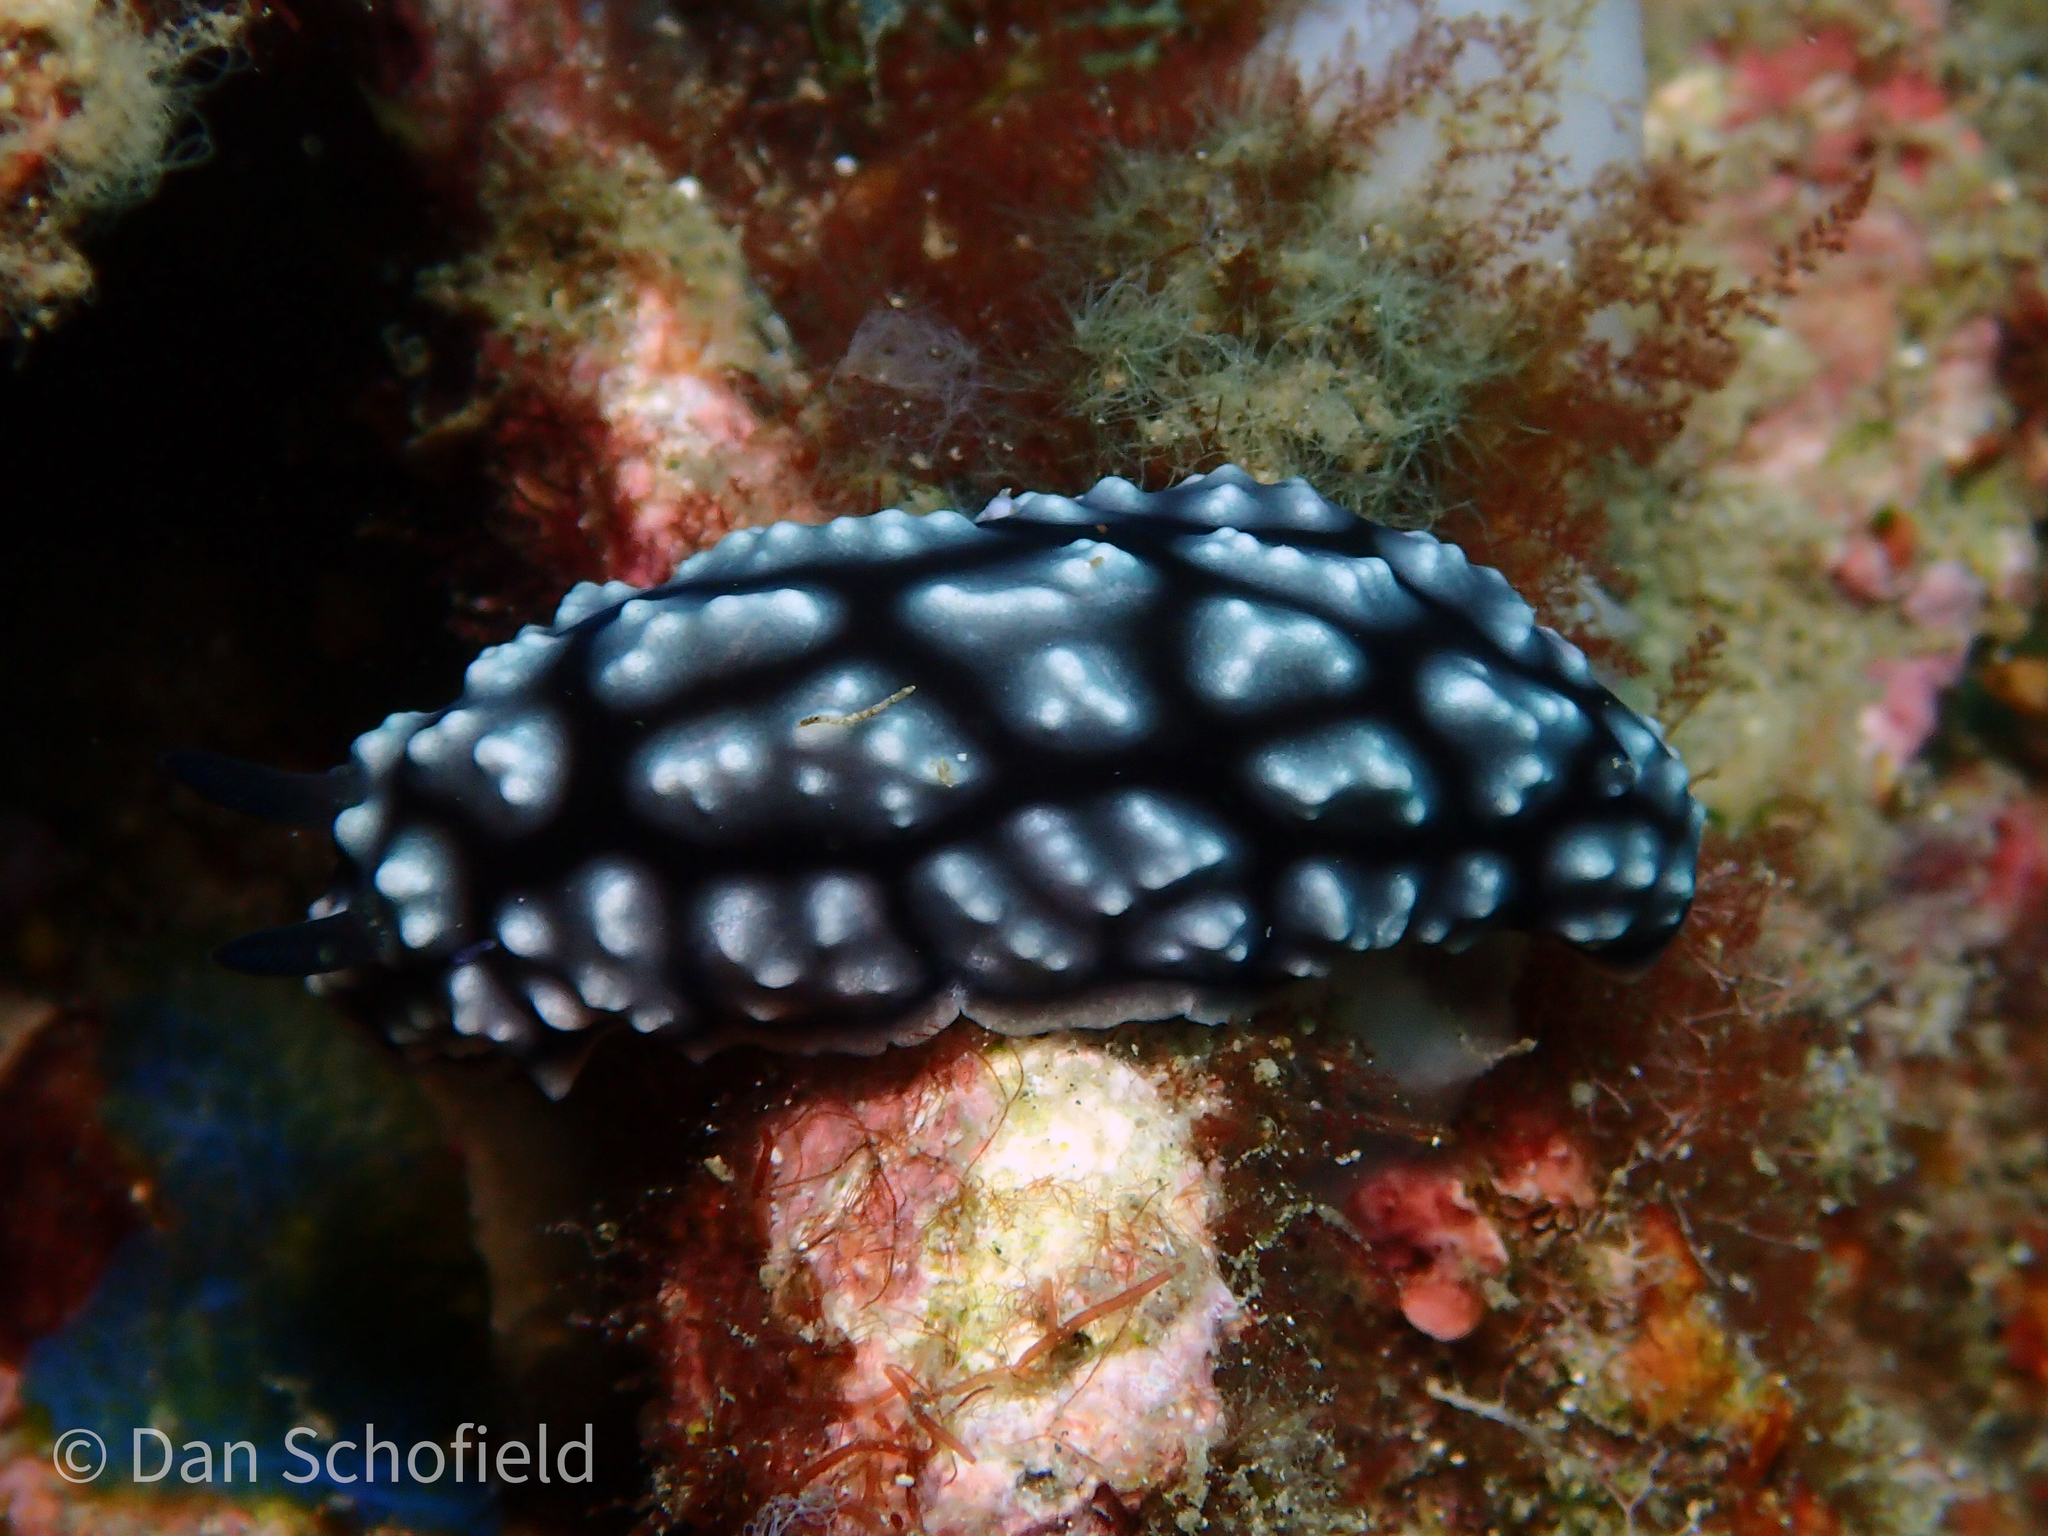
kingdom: Animalia
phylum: Mollusca
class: Gastropoda
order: Nudibranchia
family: Phyllidiidae
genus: Phyllidiella
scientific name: Phyllidiella pustulosa
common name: Pustular phyllidia
